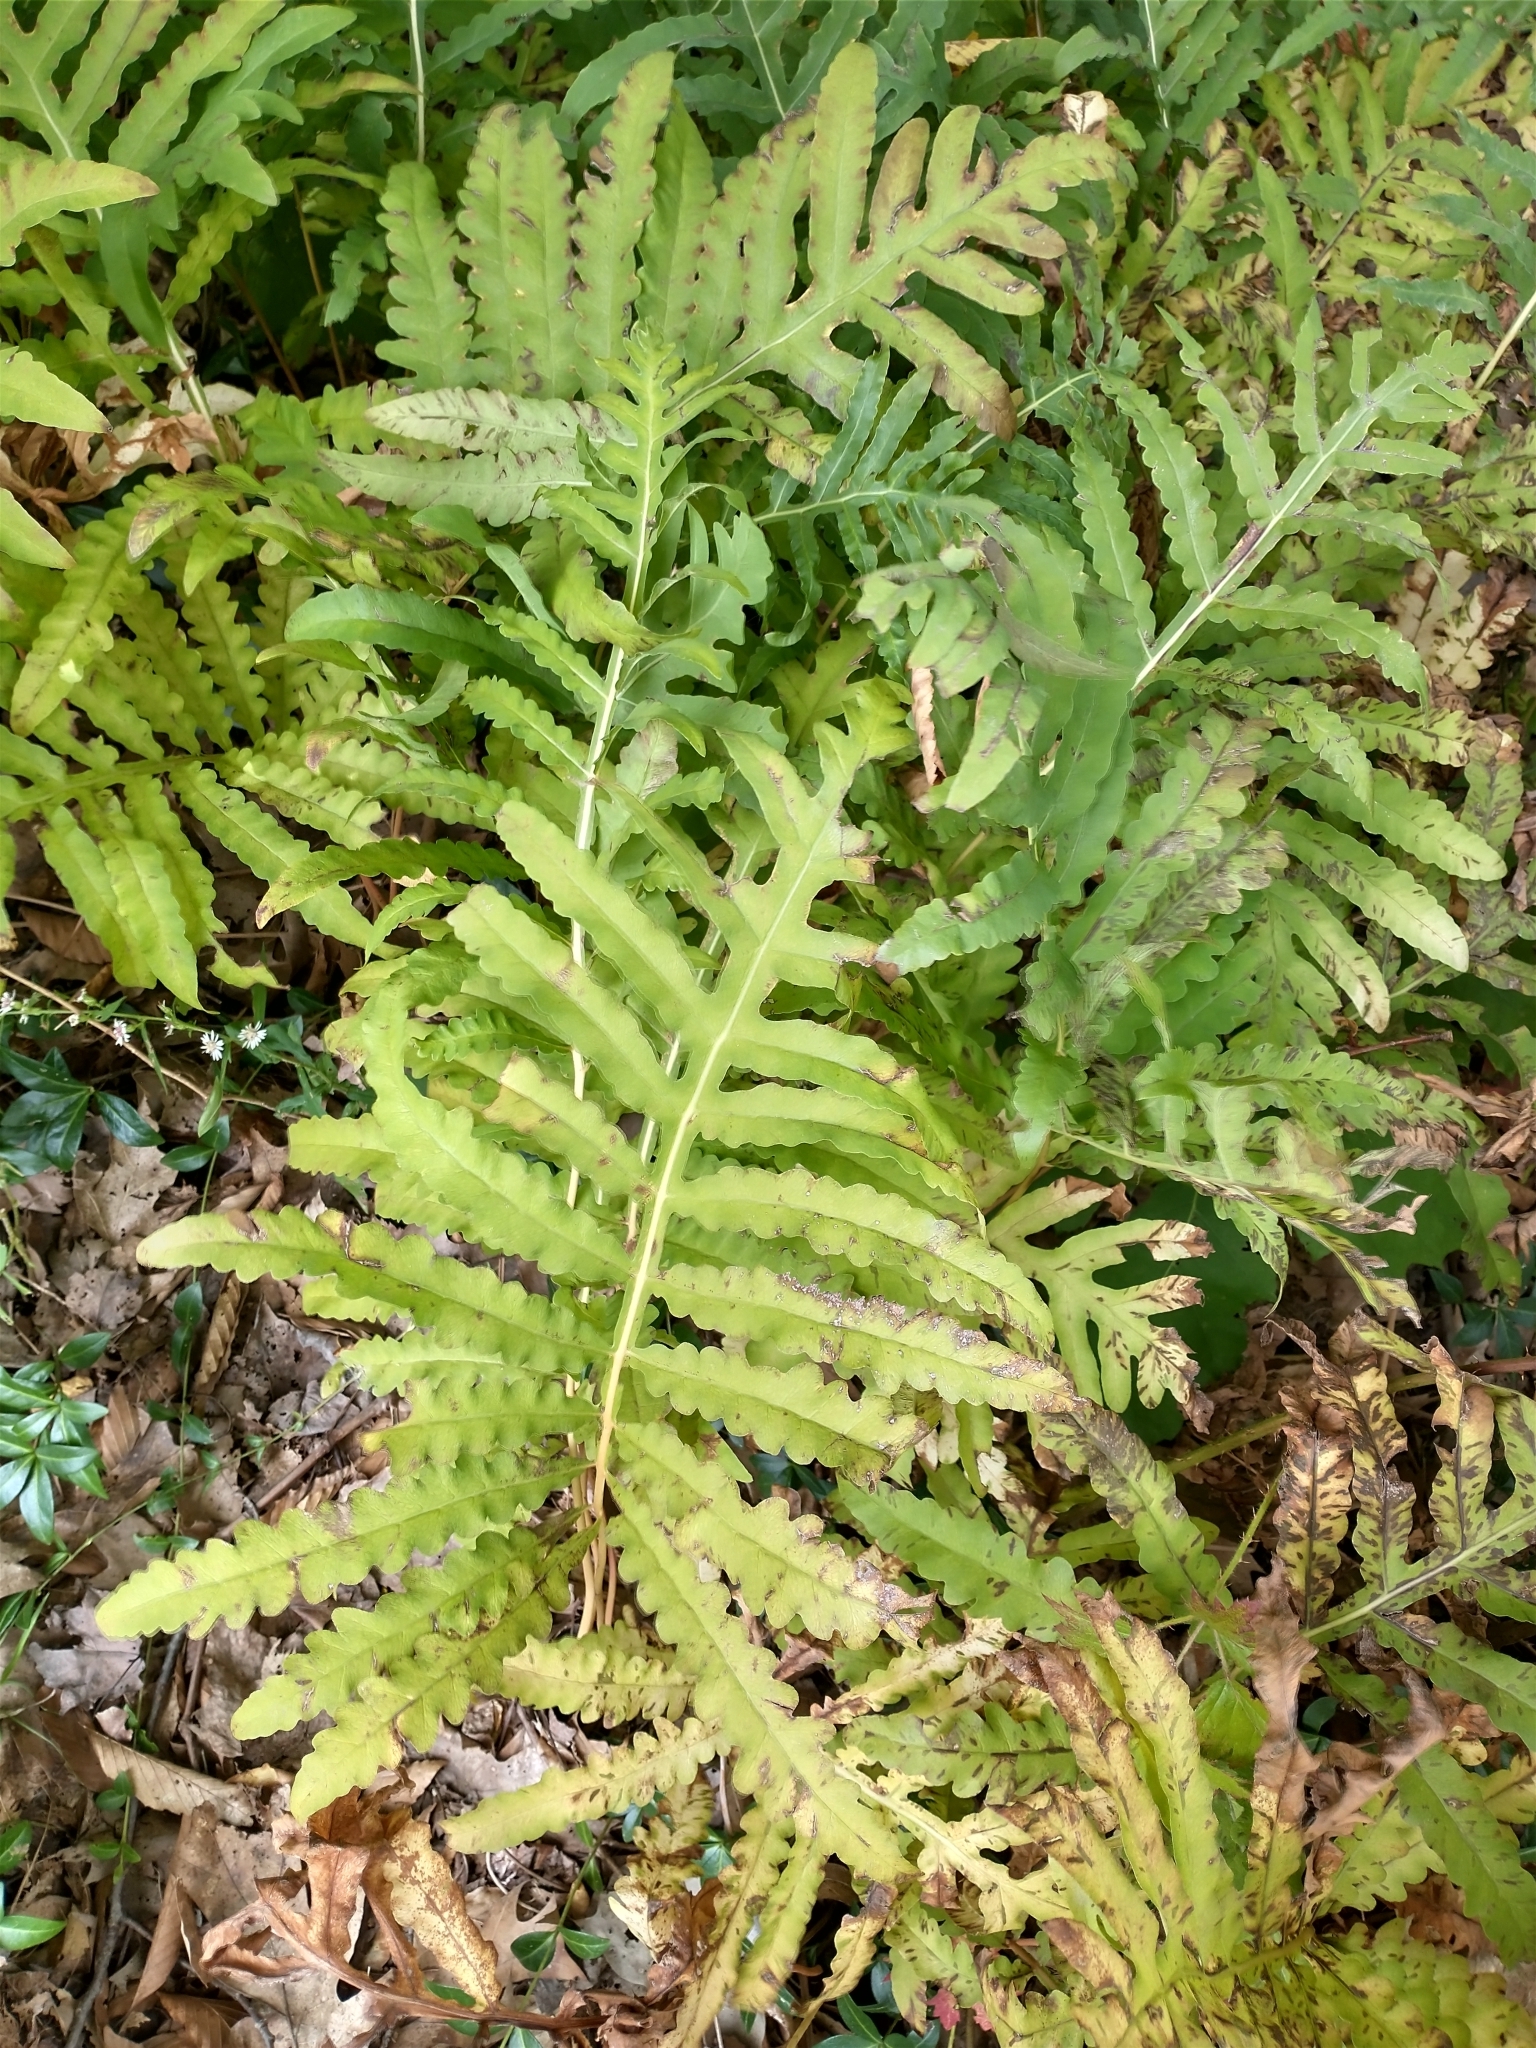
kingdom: Plantae
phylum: Tracheophyta
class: Polypodiopsida
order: Polypodiales
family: Onocleaceae
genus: Onoclea
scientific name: Onoclea sensibilis
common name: Sensitive fern
